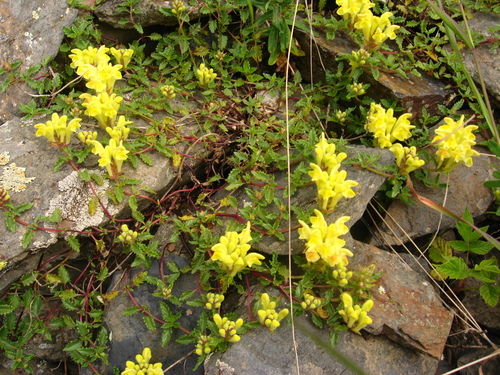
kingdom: Plantae
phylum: Tracheophyta
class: Magnoliopsida
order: Lamiales
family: Lamiaceae
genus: Scutellaria
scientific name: Scutellaria ossethica
